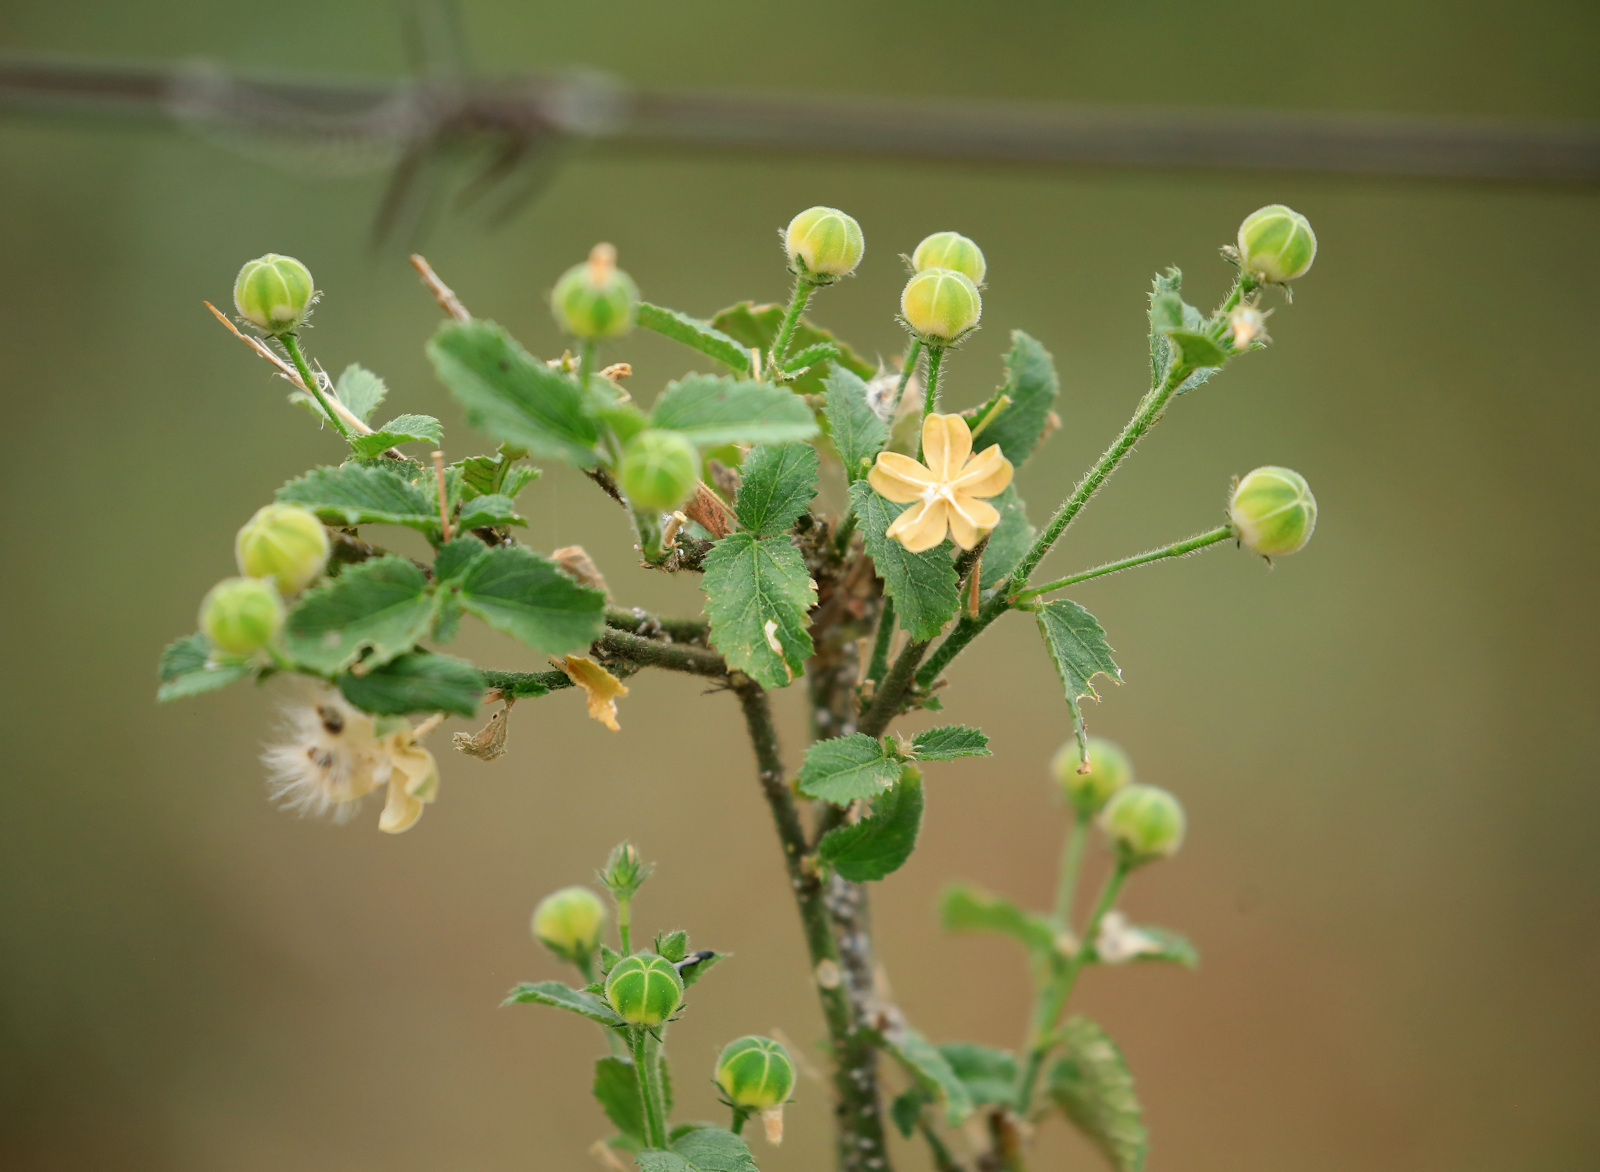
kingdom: Plantae
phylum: Tracheophyta
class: Magnoliopsida
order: Malvales
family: Malvaceae
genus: Hibiscus
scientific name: Hibiscus micranthus
